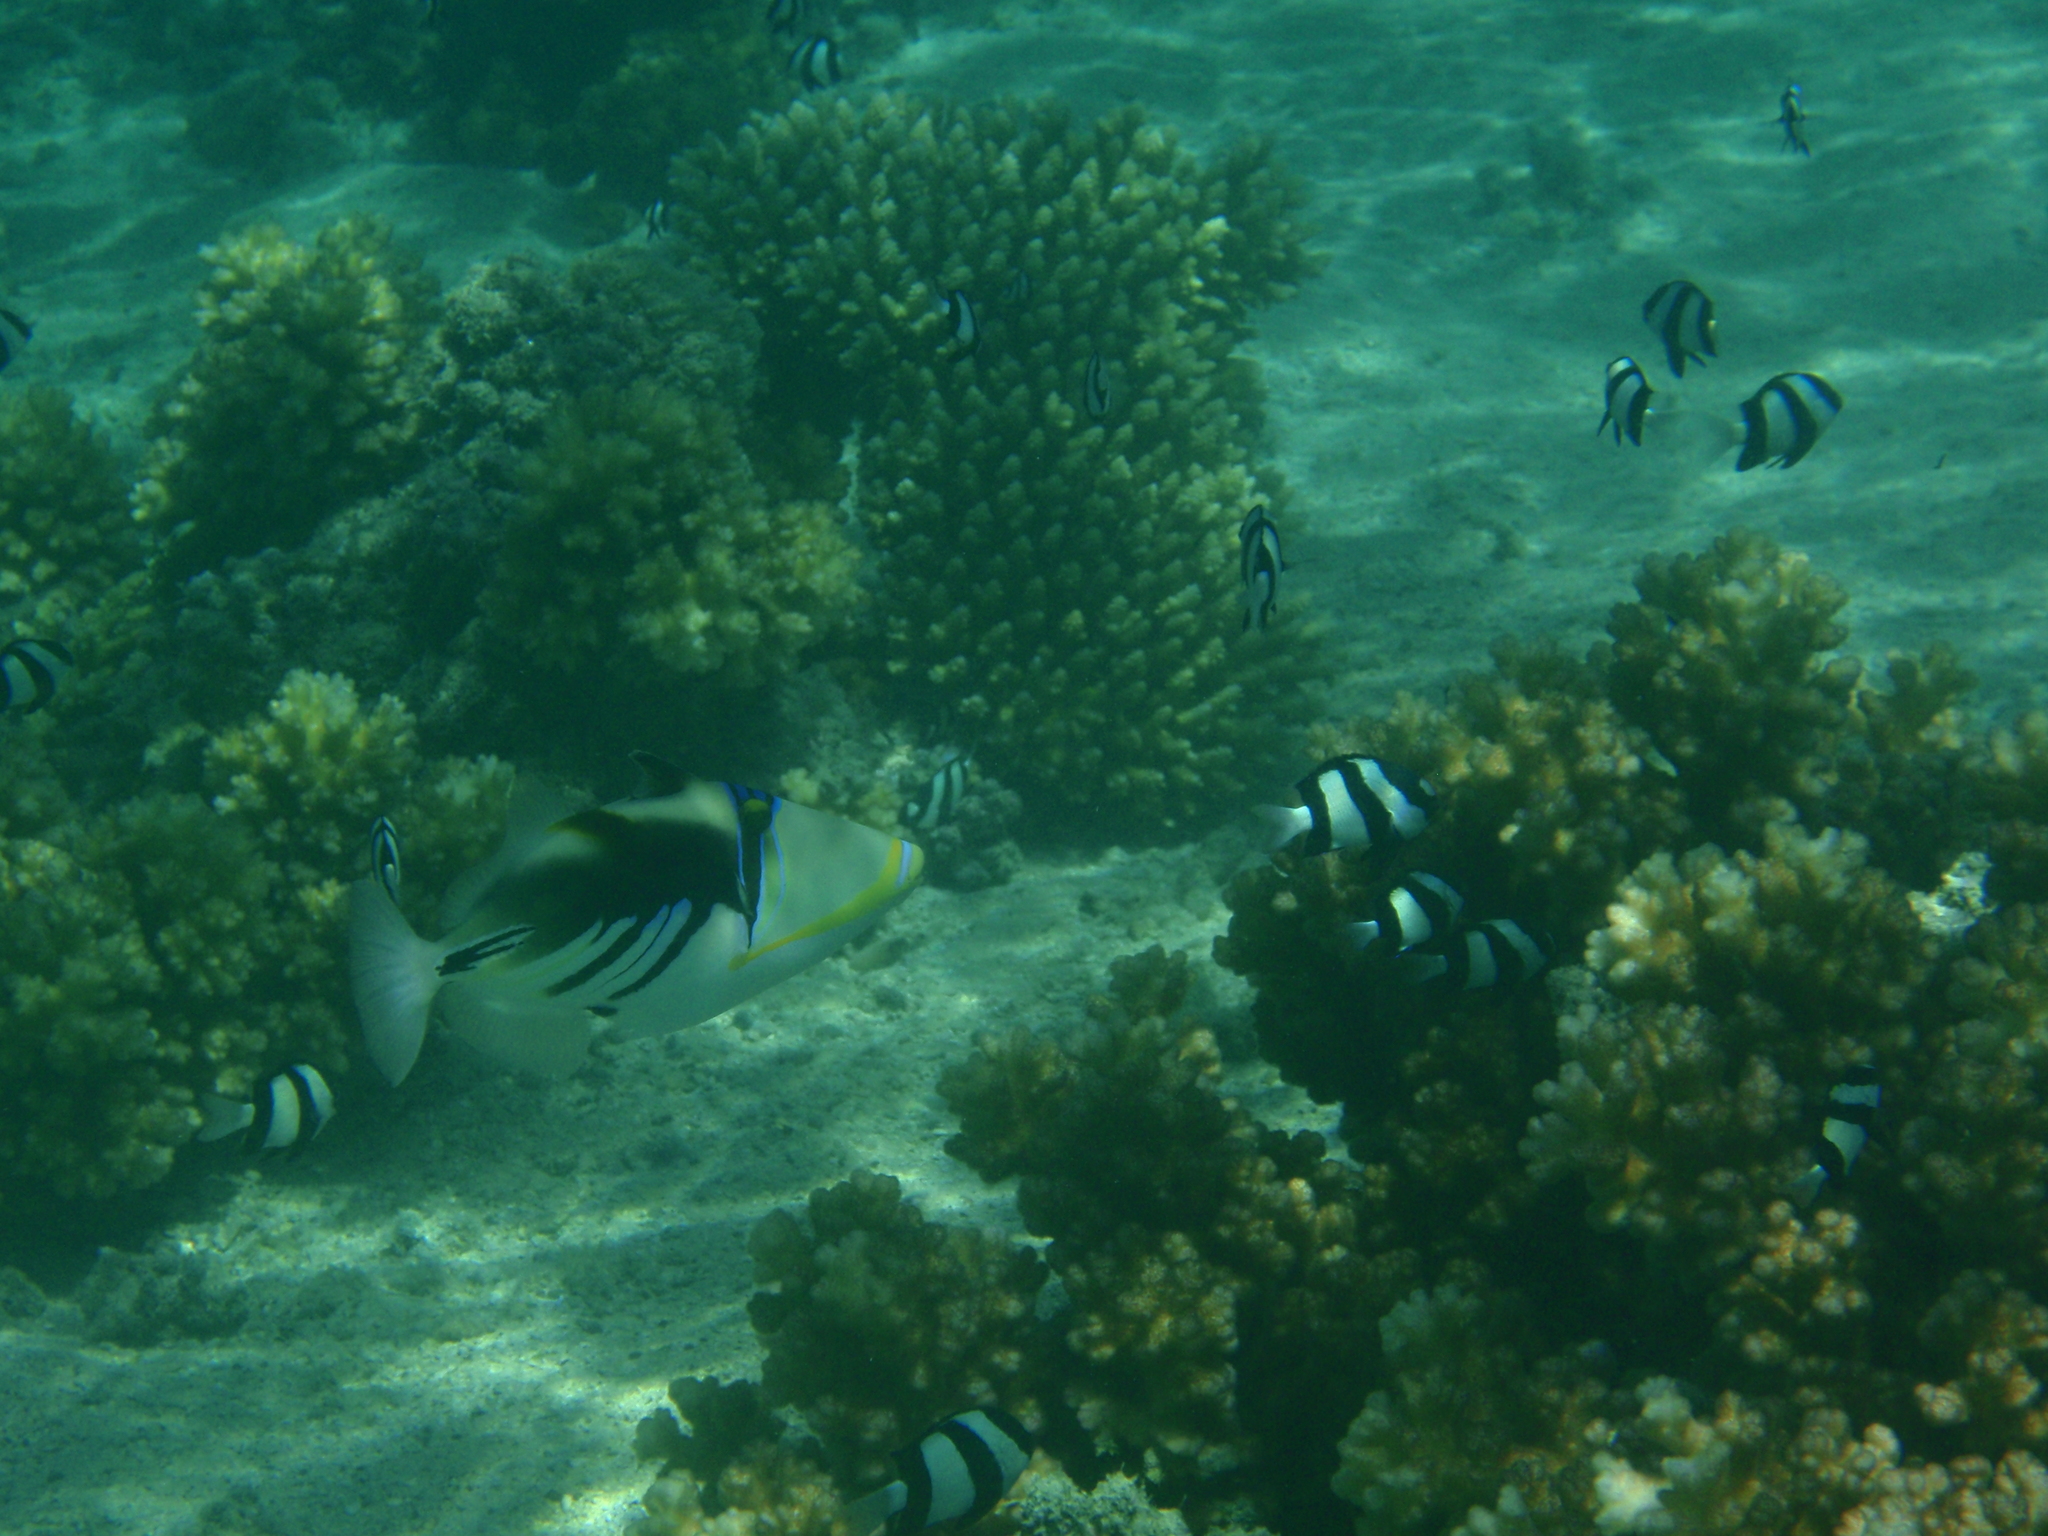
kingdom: Animalia
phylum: Chordata
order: Tetraodontiformes
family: Balistidae
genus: Rhinecanthus
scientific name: Rhinecanthus aculeatus
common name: White-banded triggerfish
